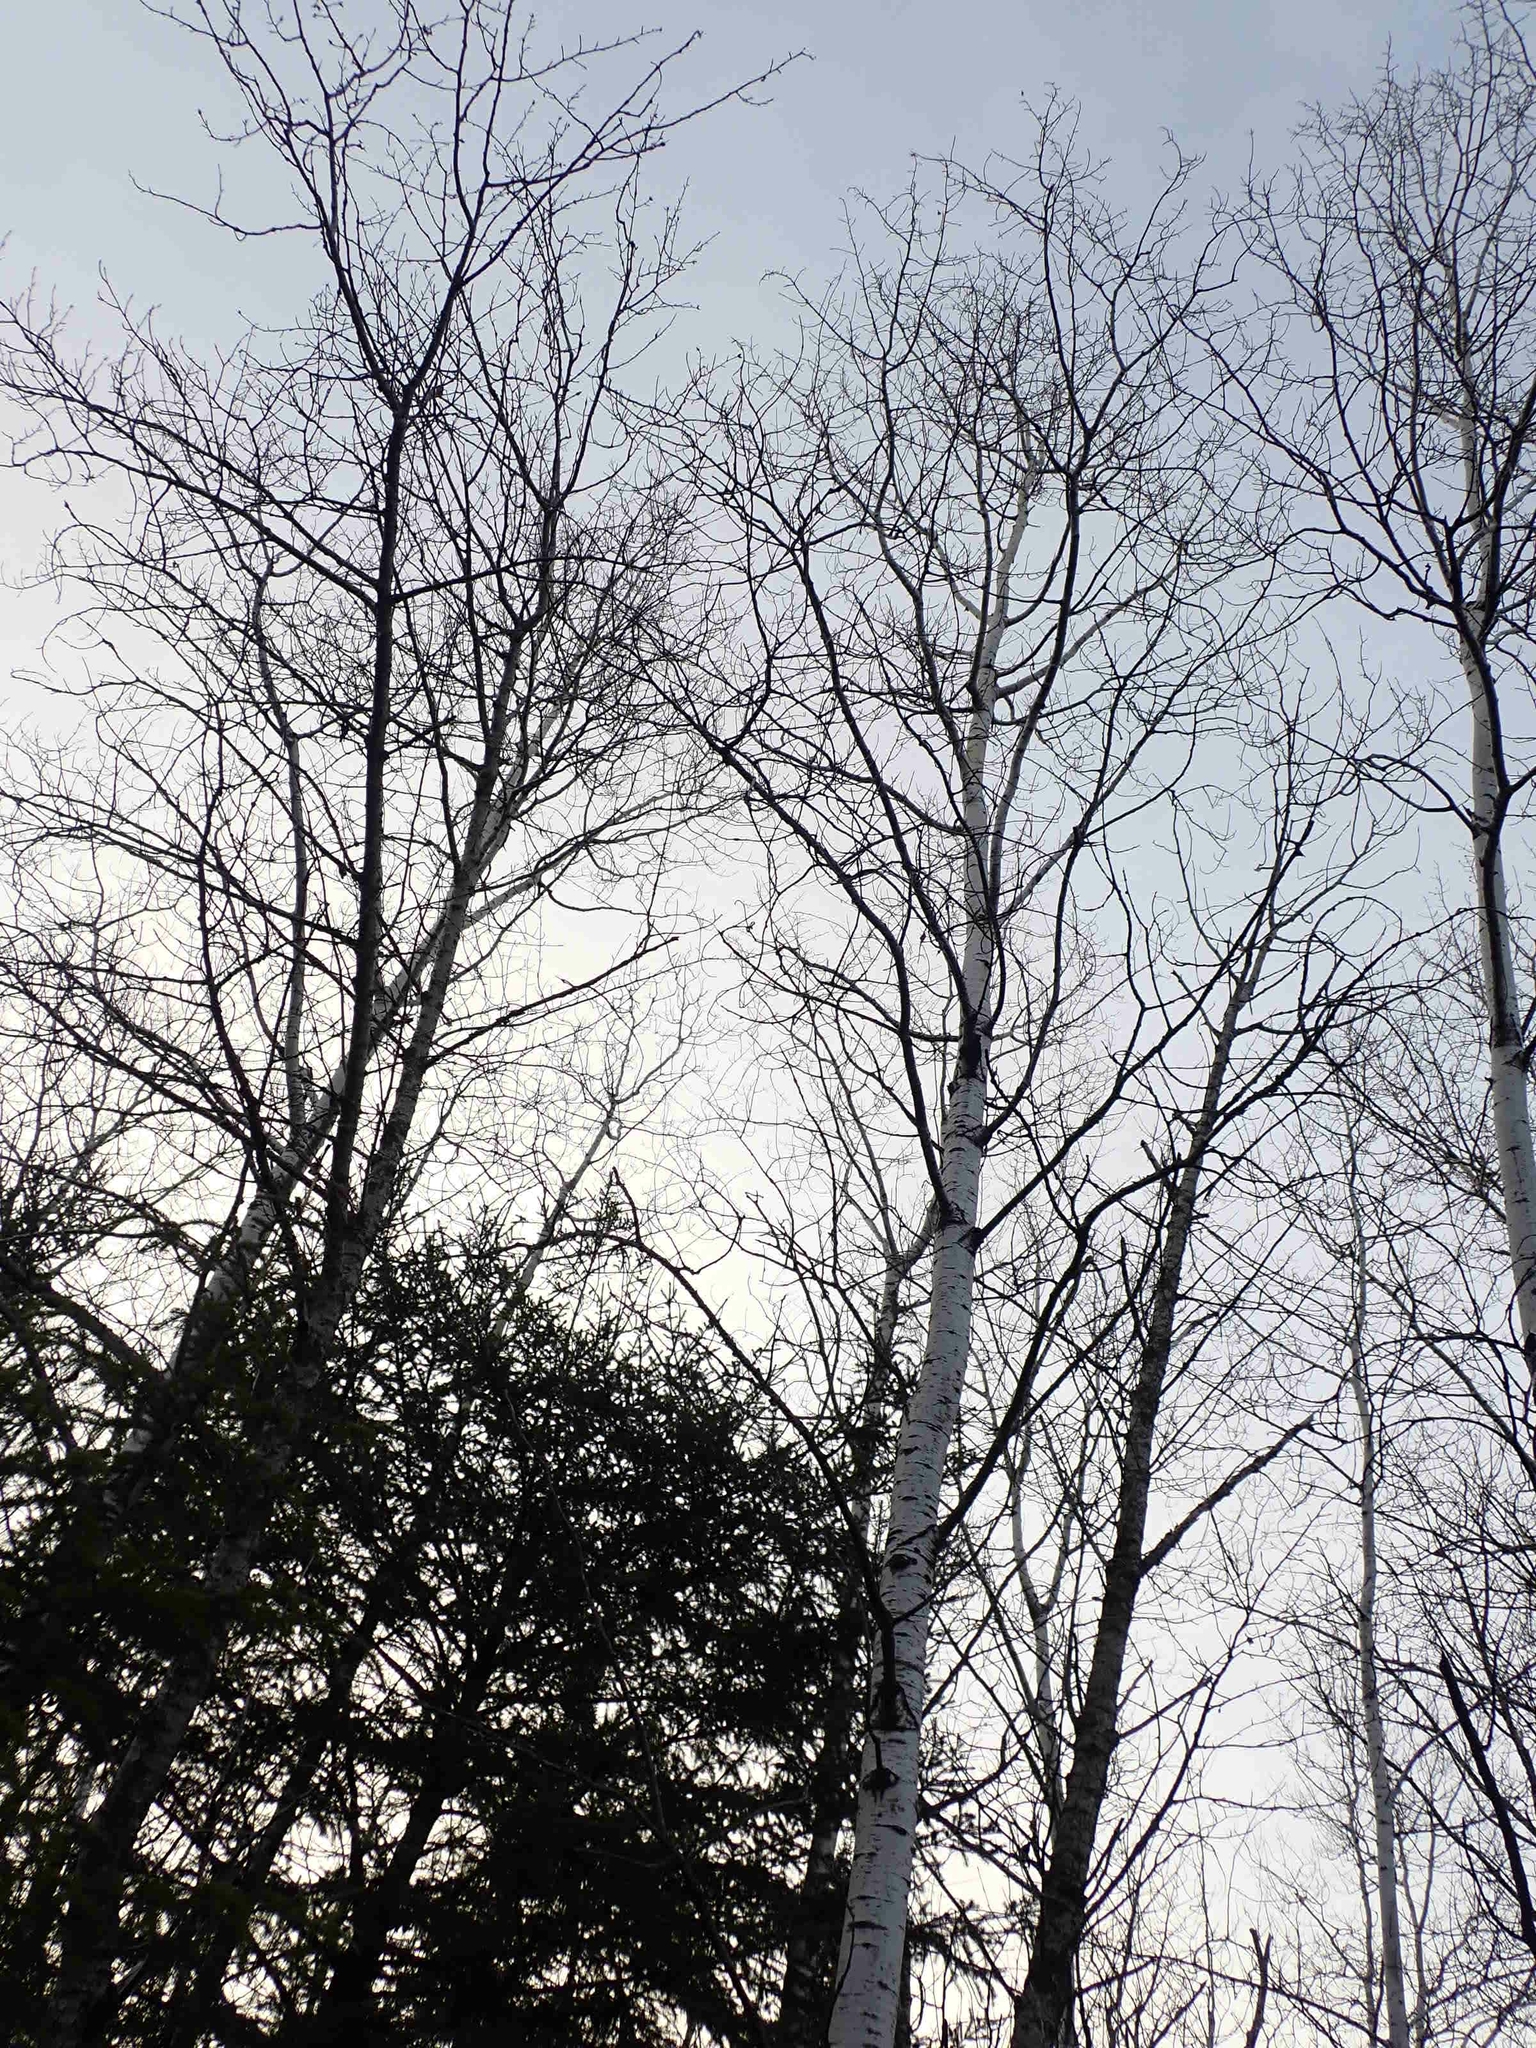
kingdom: Plantae
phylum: Tracheophyta
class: Magnoliopsida
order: Malpighiales
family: Salicaceae
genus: Populus
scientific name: Populus tremuloides
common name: Quaking aspen
